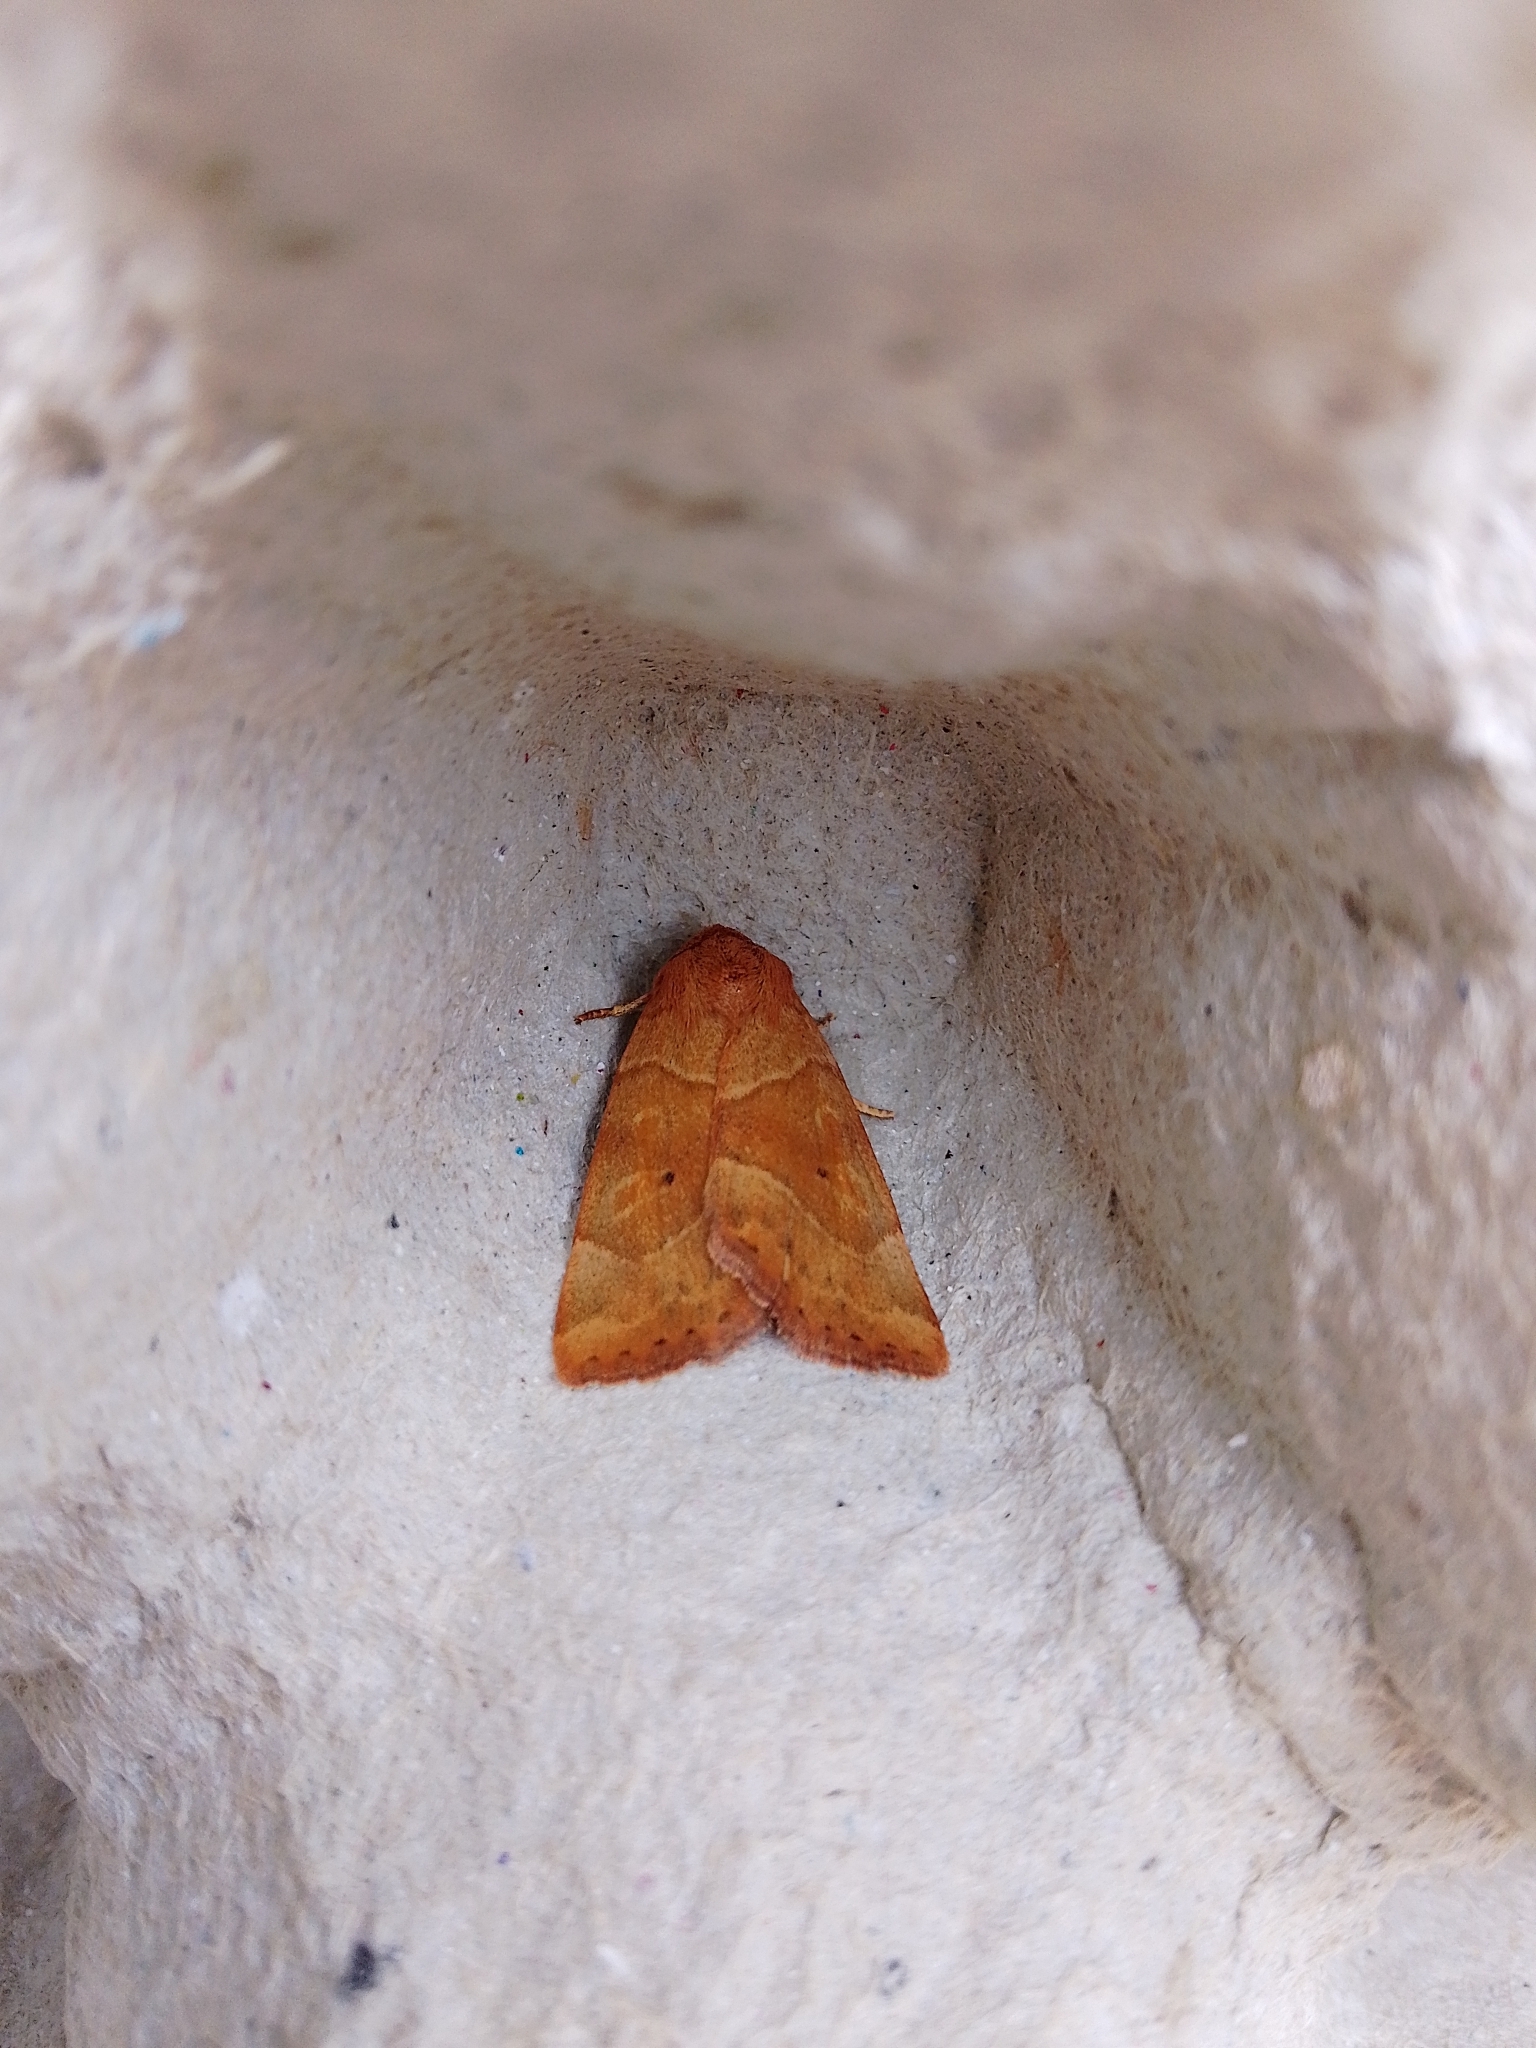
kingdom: Animalia
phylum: Arthropoda
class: Insecta
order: Lepidoptera
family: Noctuidae
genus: Cosmia
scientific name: Cosmia trapezina
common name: Dun-bar
